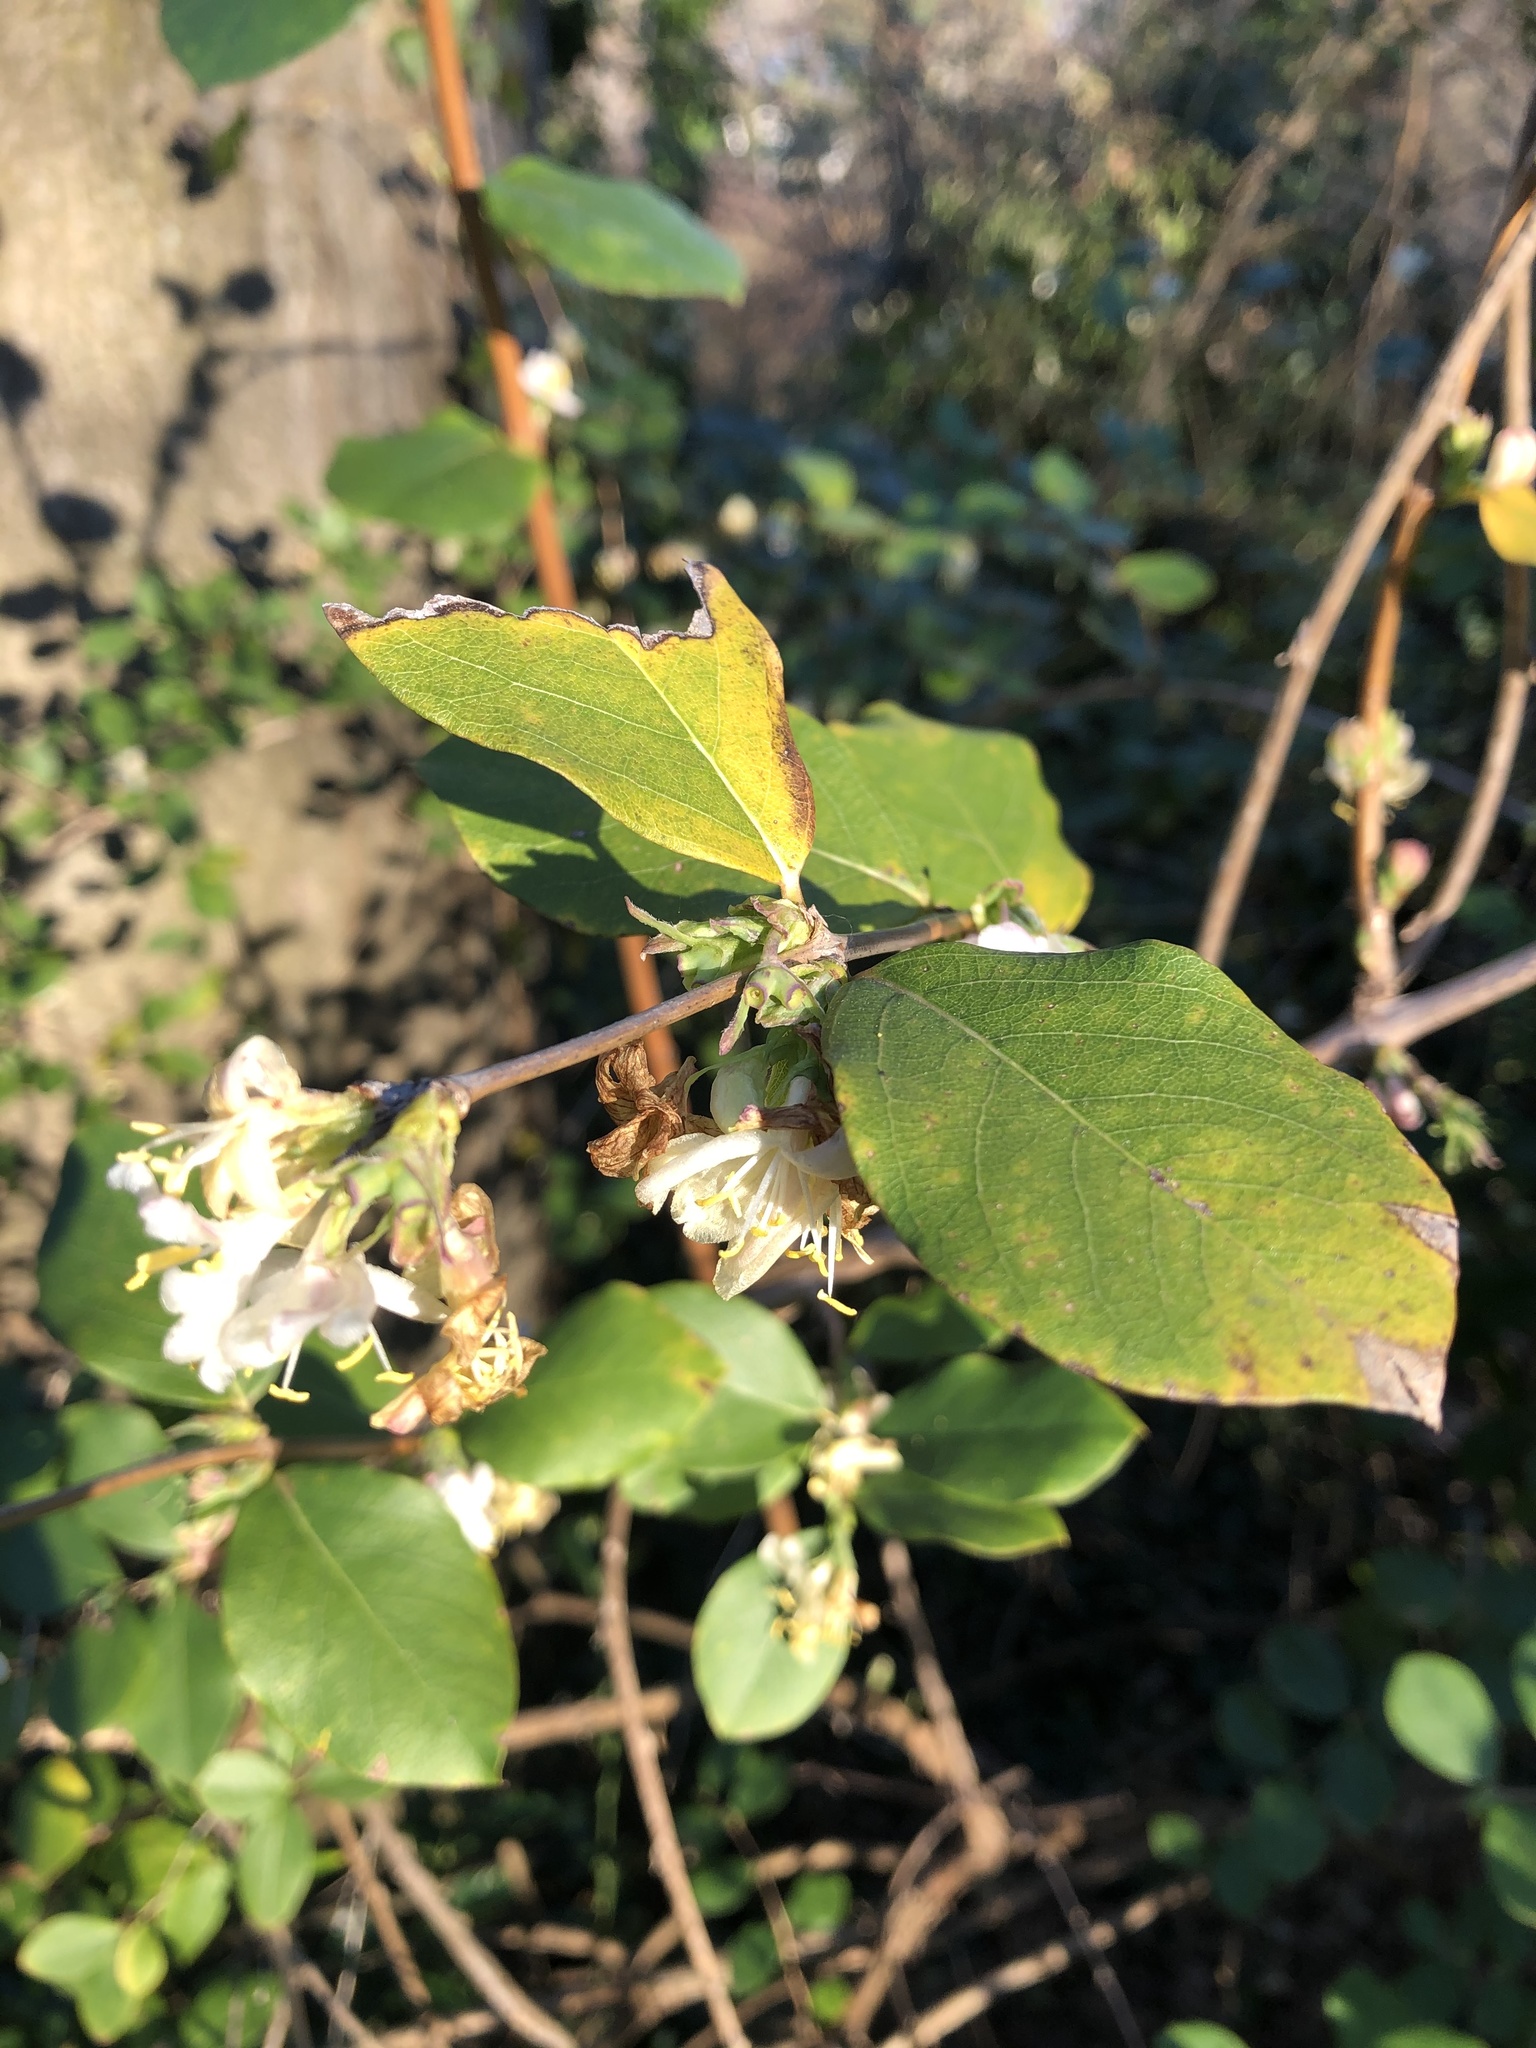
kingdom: Plantae
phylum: Tracheophyta
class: Magnoliopsida
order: Dipsacales
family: Caprifoliaceae
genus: Lonicera
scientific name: Lonicera fragrantissima
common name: Fragrant honeysuckle
